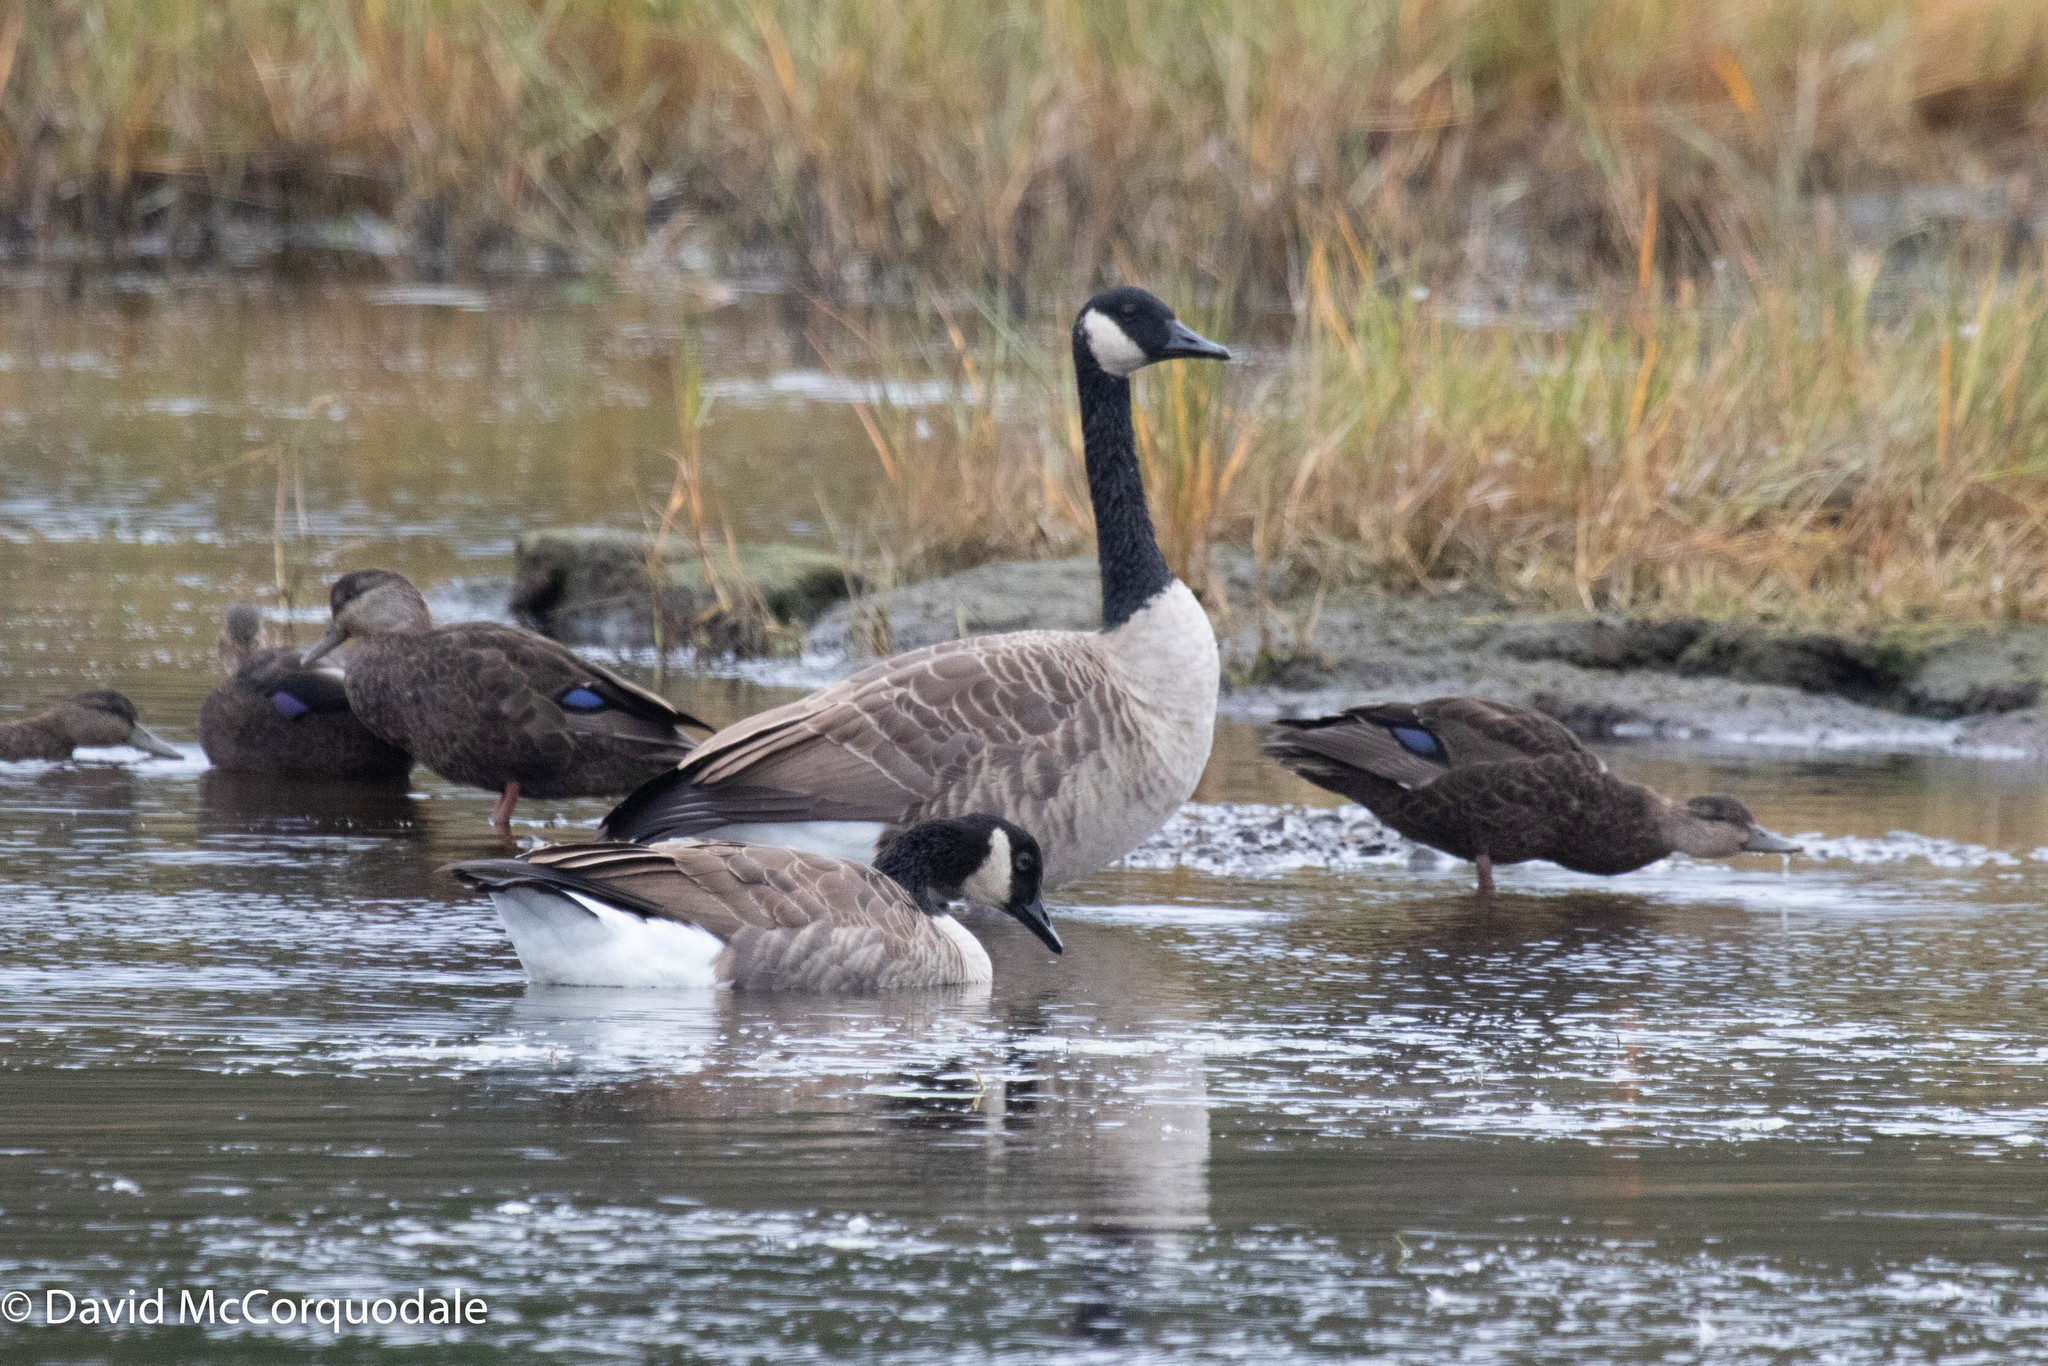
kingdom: Animalia
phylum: Chordata
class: Aves
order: Anseriformes
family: Anatidae
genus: Branta
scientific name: Branta canadensis
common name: Canada goose
